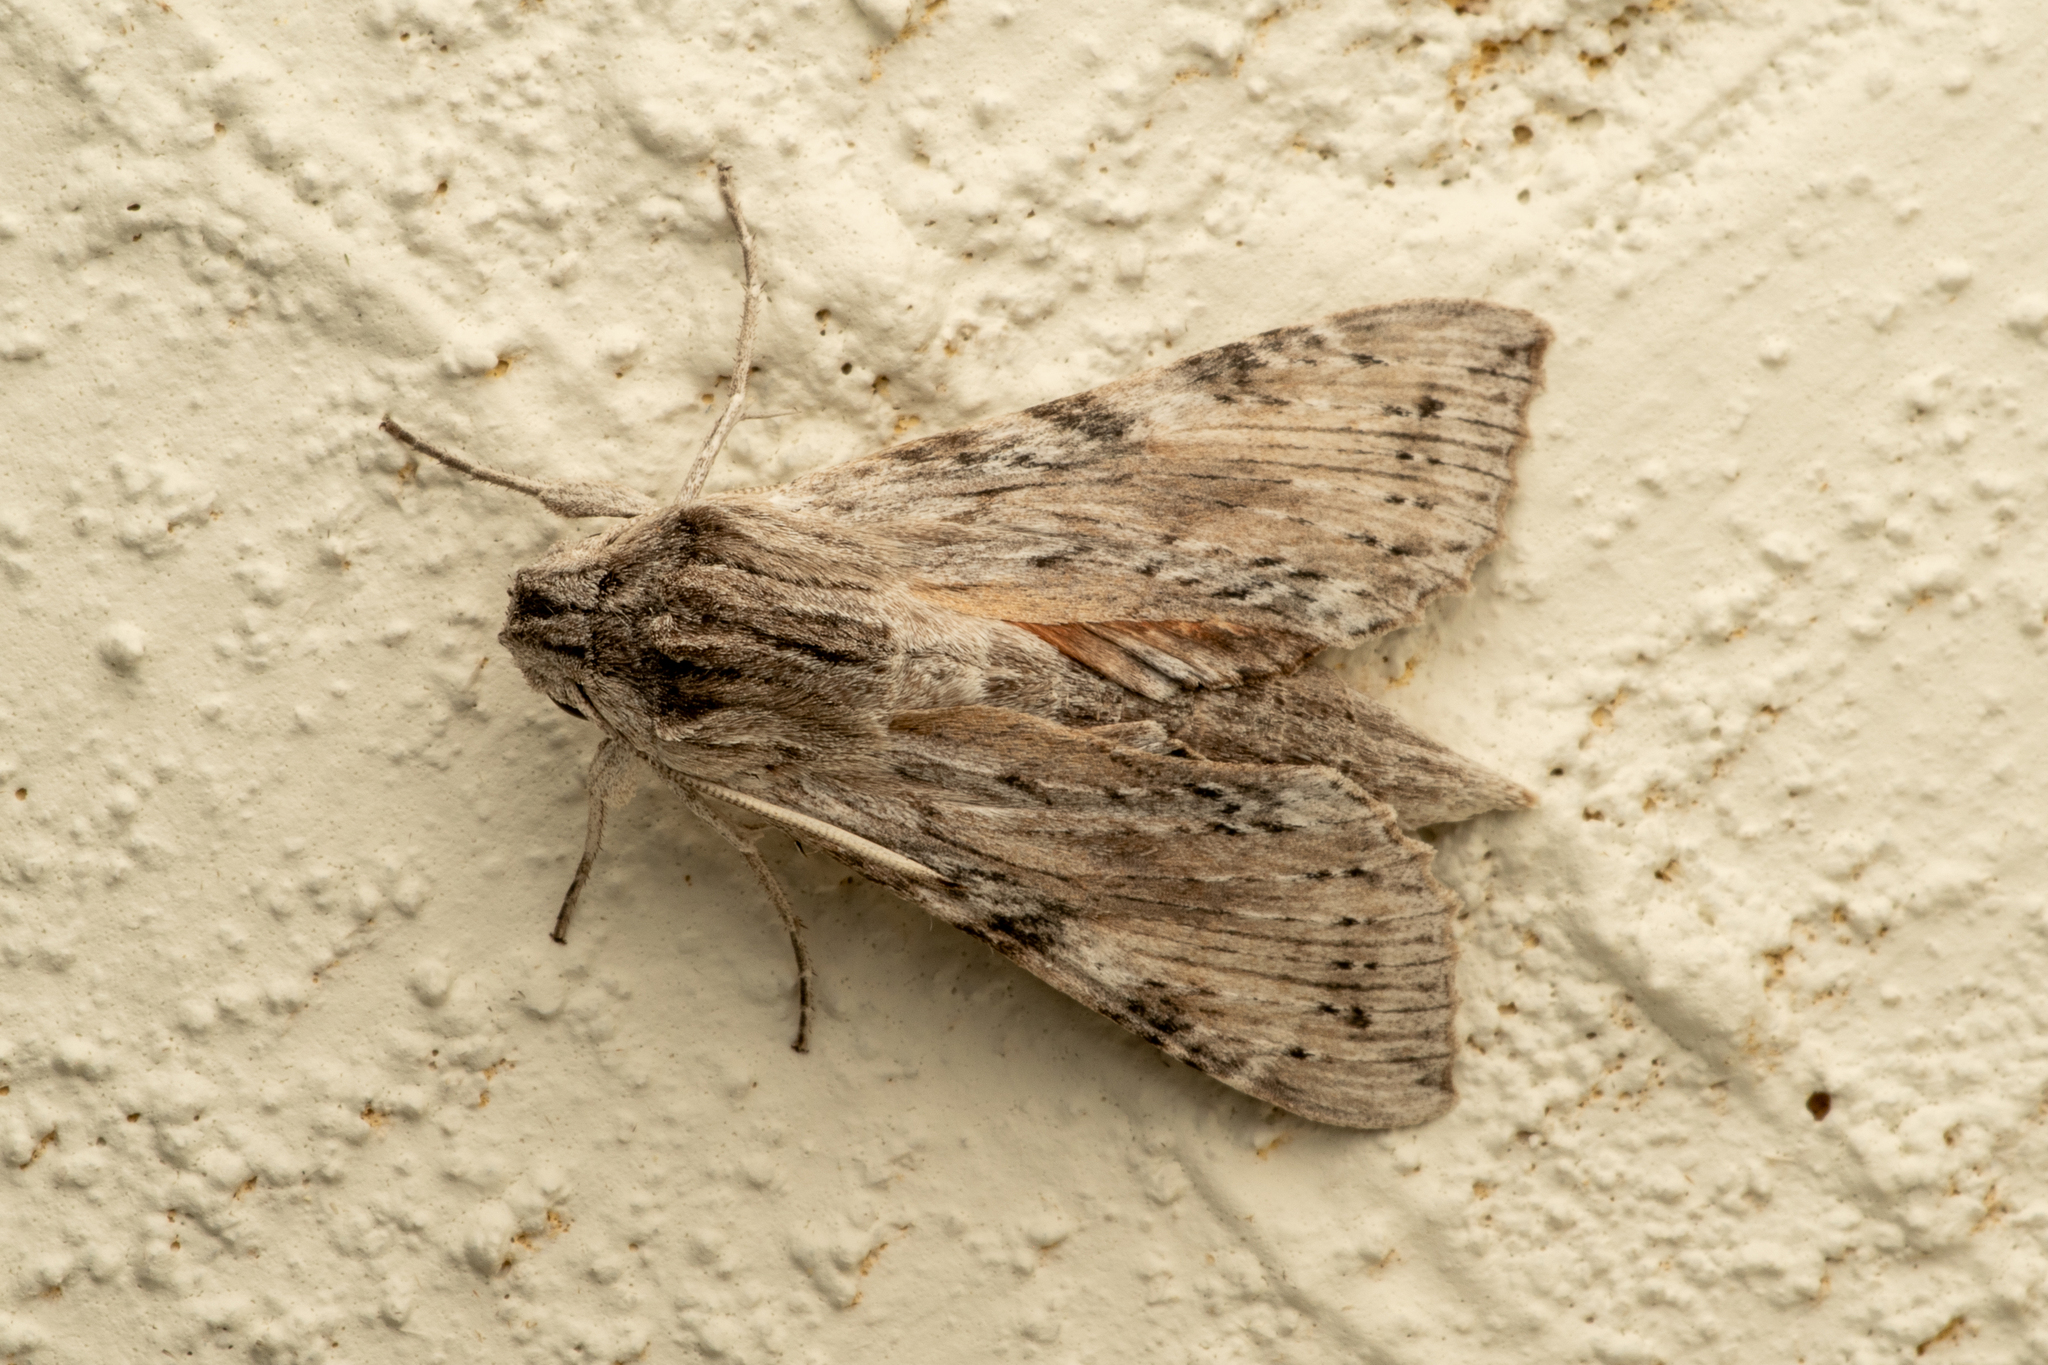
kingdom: Animalia
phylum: Arthropoda
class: Insecta
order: Lepidoptera
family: Sphingidae
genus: Erinnyis
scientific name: Erinnyis guttularis
